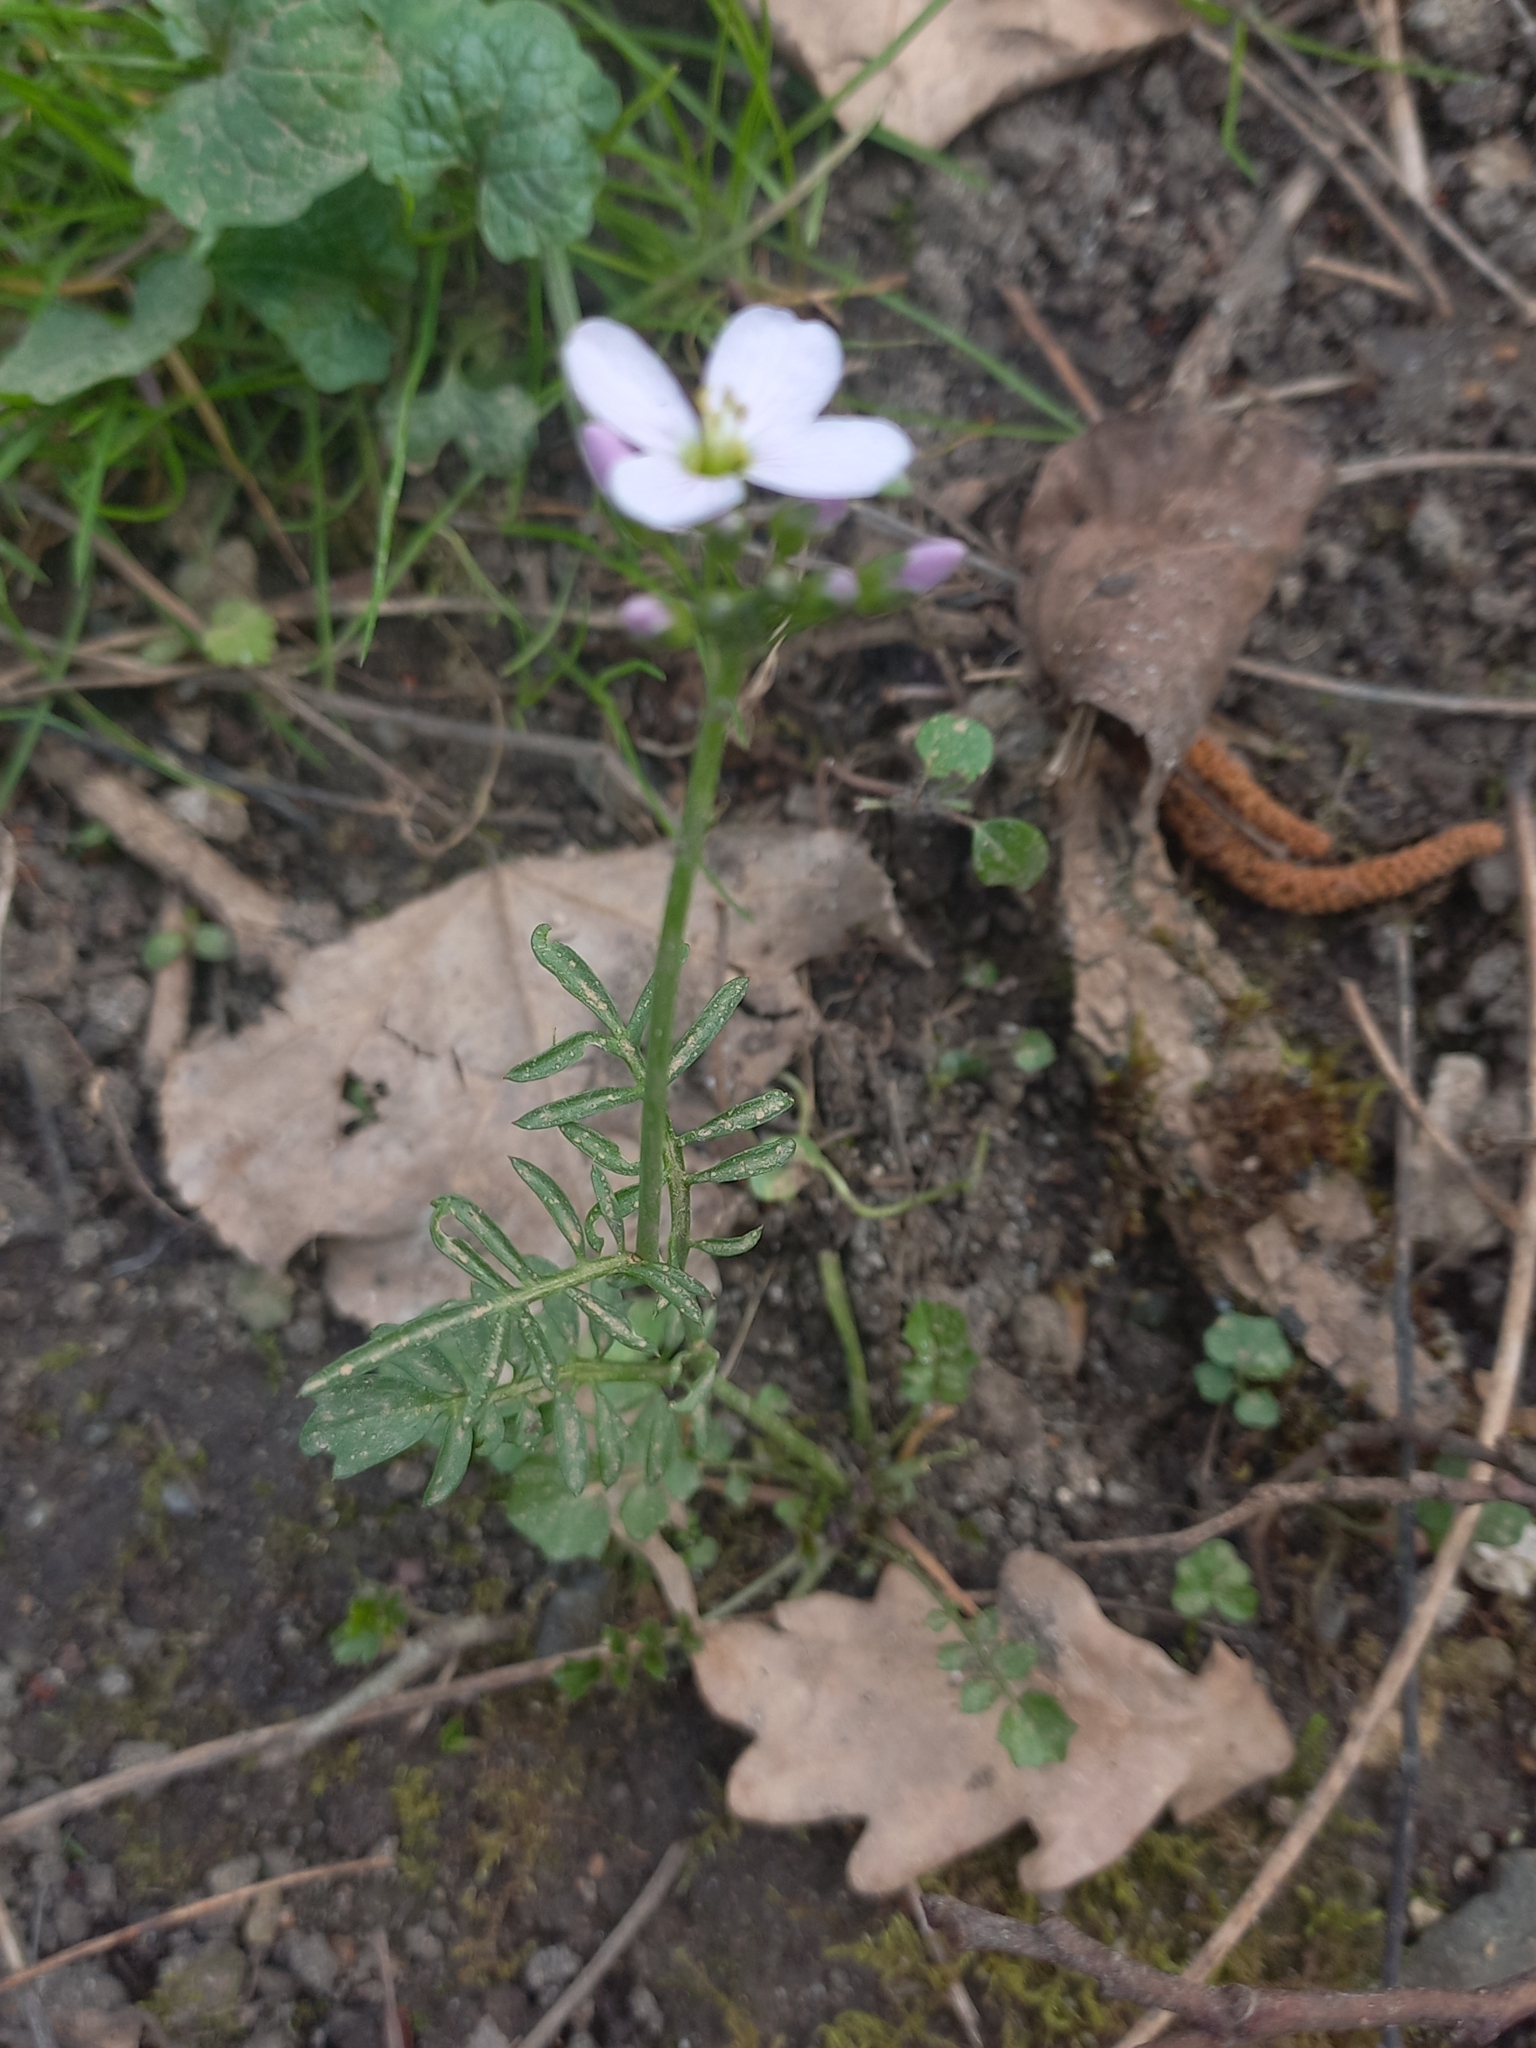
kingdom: Plantae
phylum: Tracheophyta
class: Magnoliopsida
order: Brassicales
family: Brassicaceae
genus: Cardamine
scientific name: Cardamine pratensis
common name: Cuckoo flower
